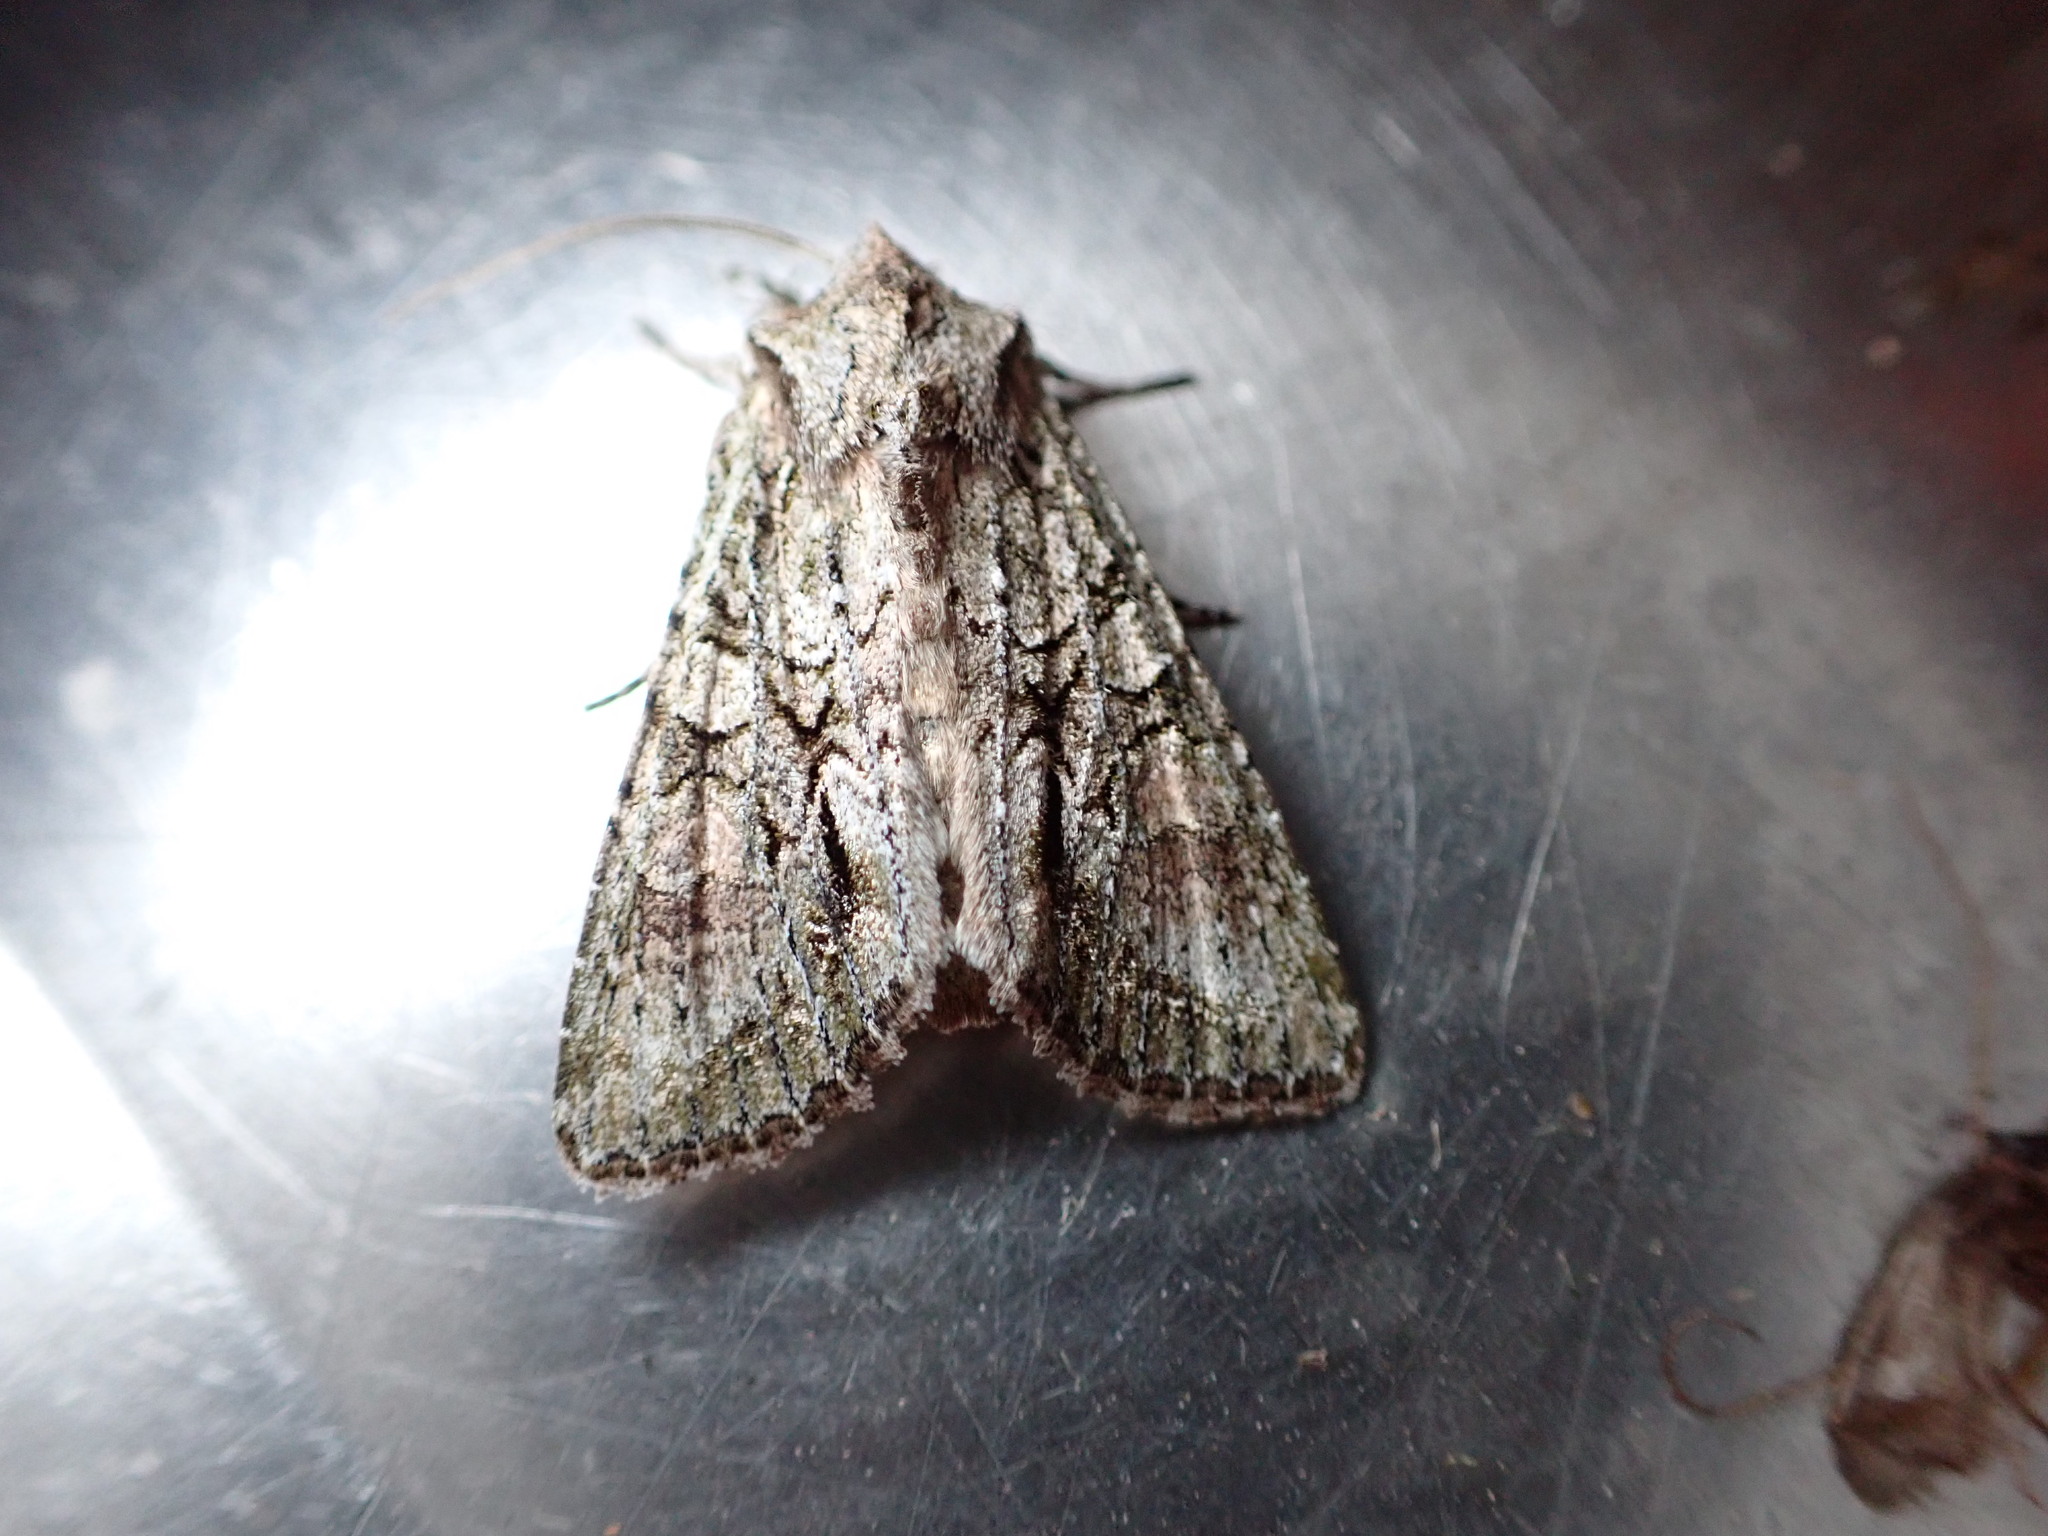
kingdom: Animalia
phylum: Arthropoda
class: Insecta
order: Lepidoptera
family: Noctuidae
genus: Ichneutica
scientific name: Ichneutica mutans
